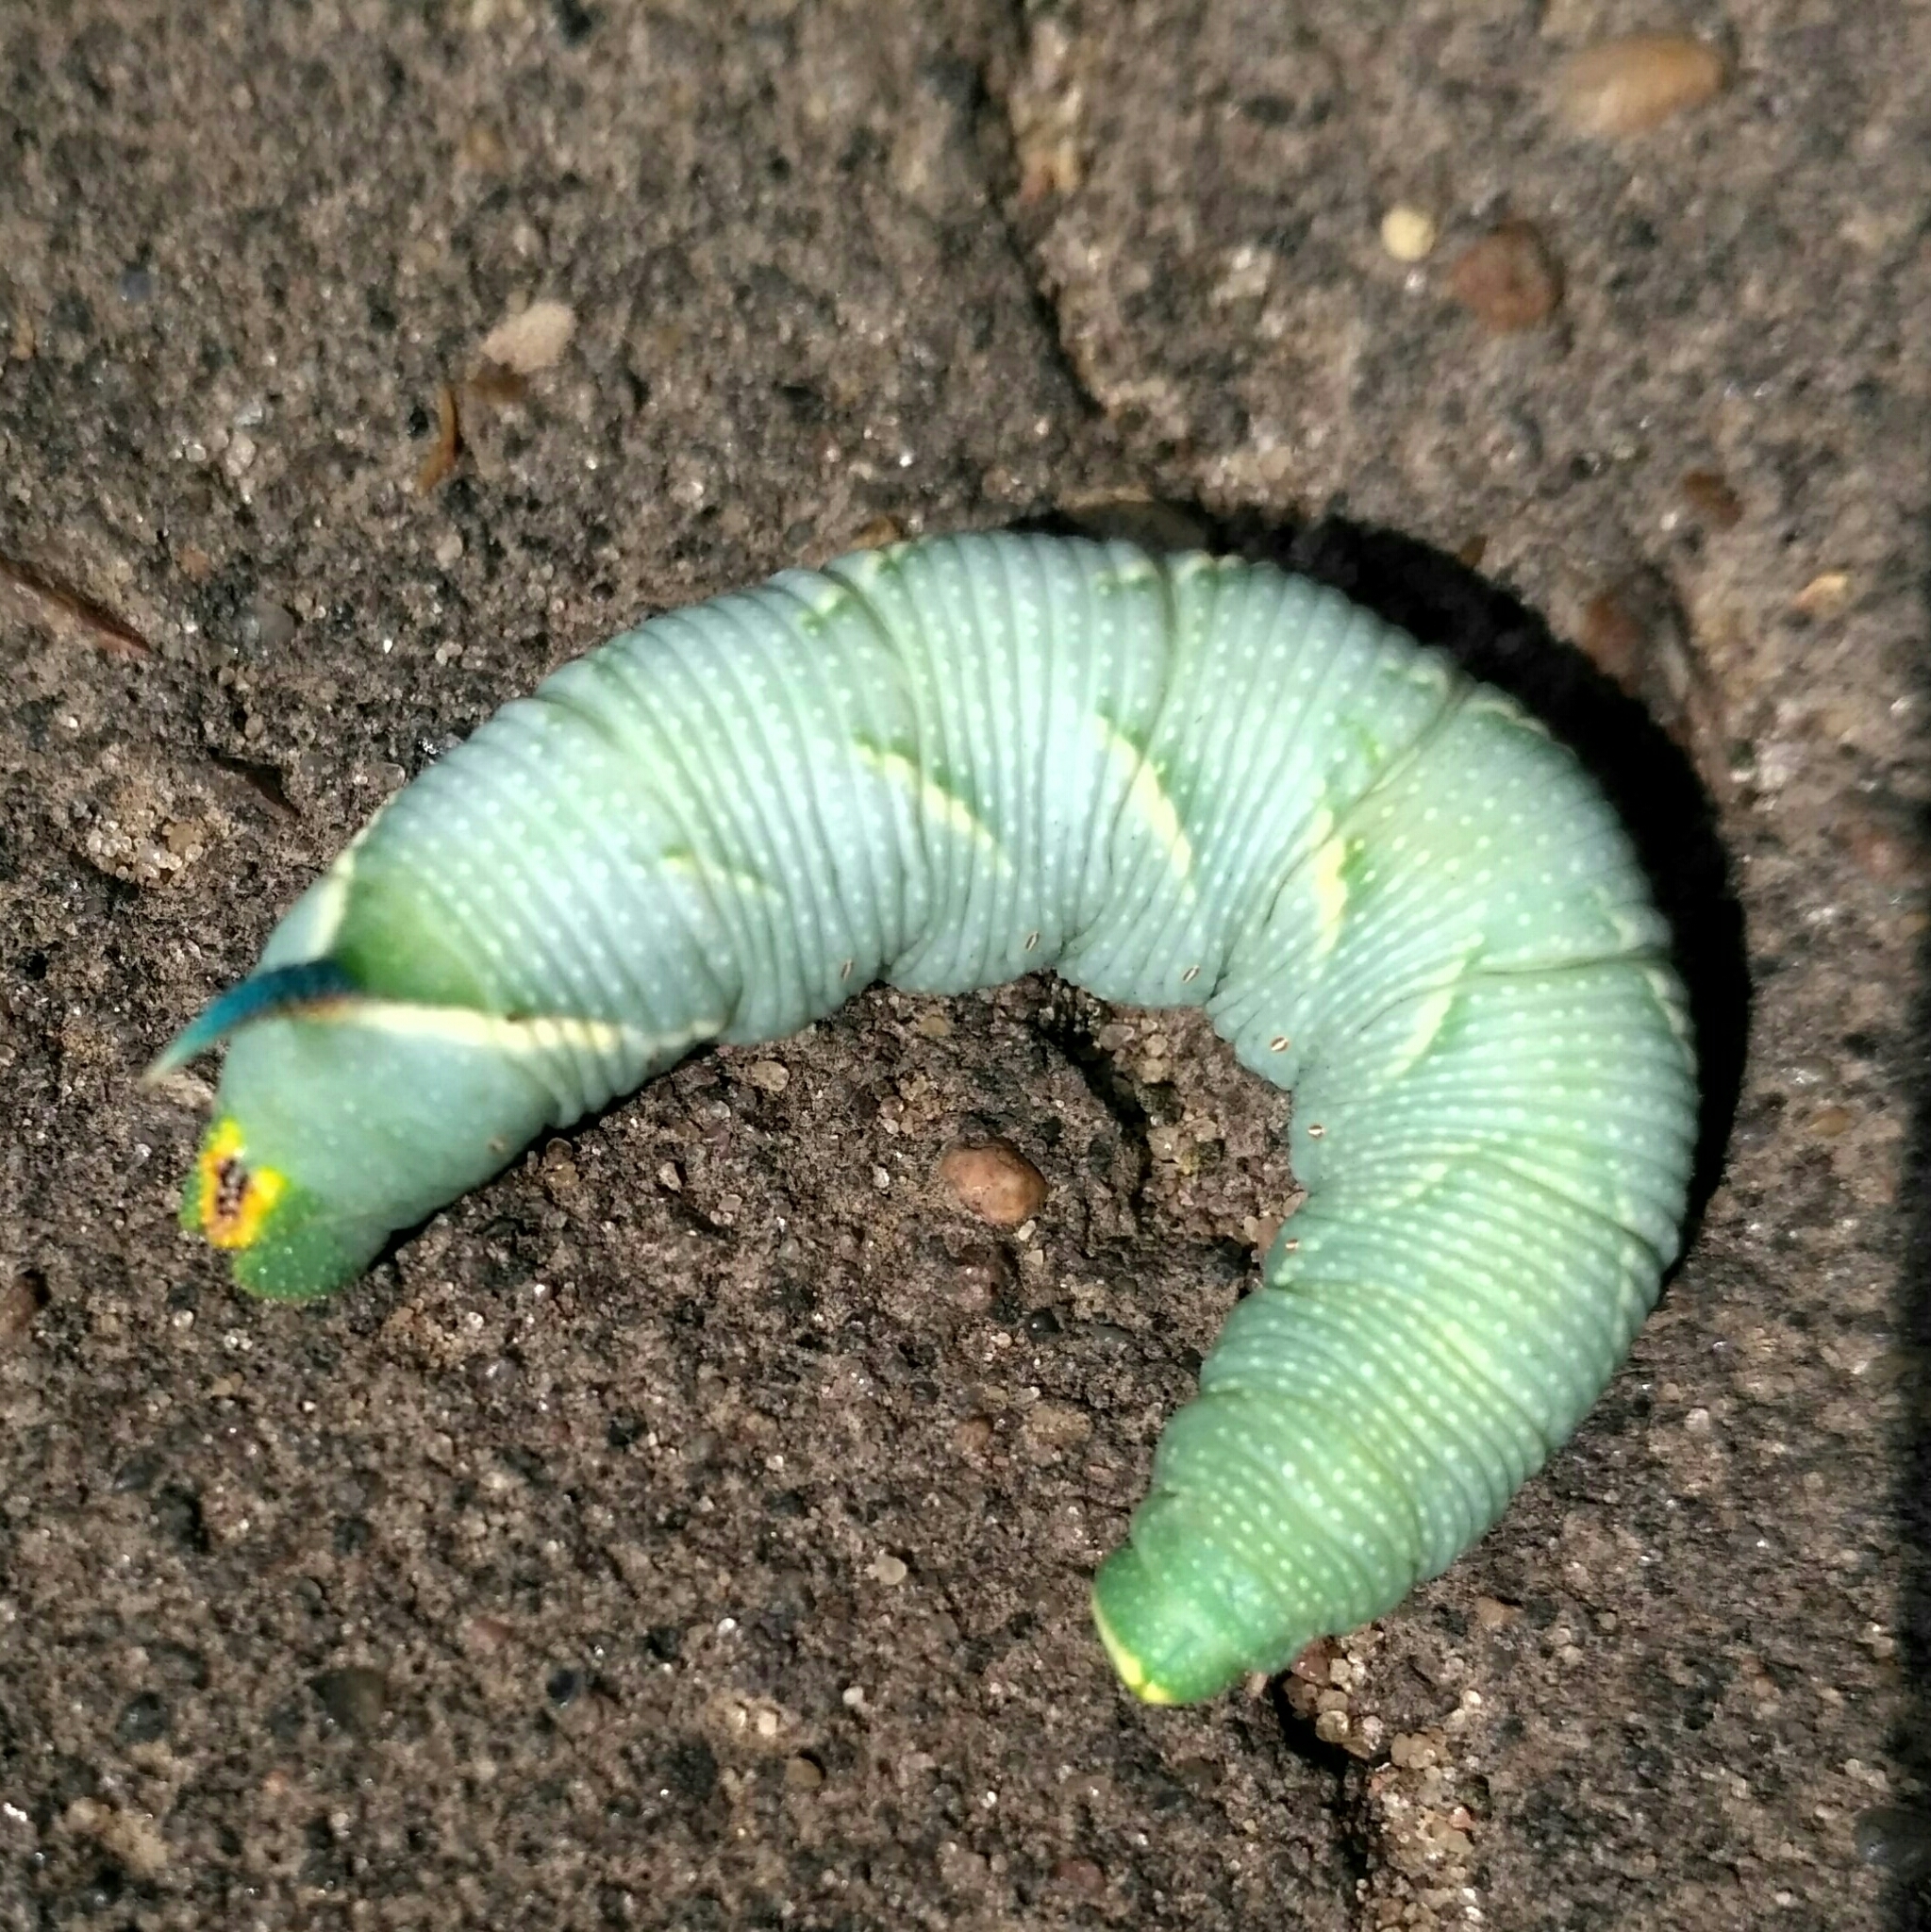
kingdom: Animalia
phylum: Arthropoda
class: Insecta
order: Lepidoptera
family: Sphingidae
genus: Mimas
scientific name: Mimas tiliae
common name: Lime hawk-moth
